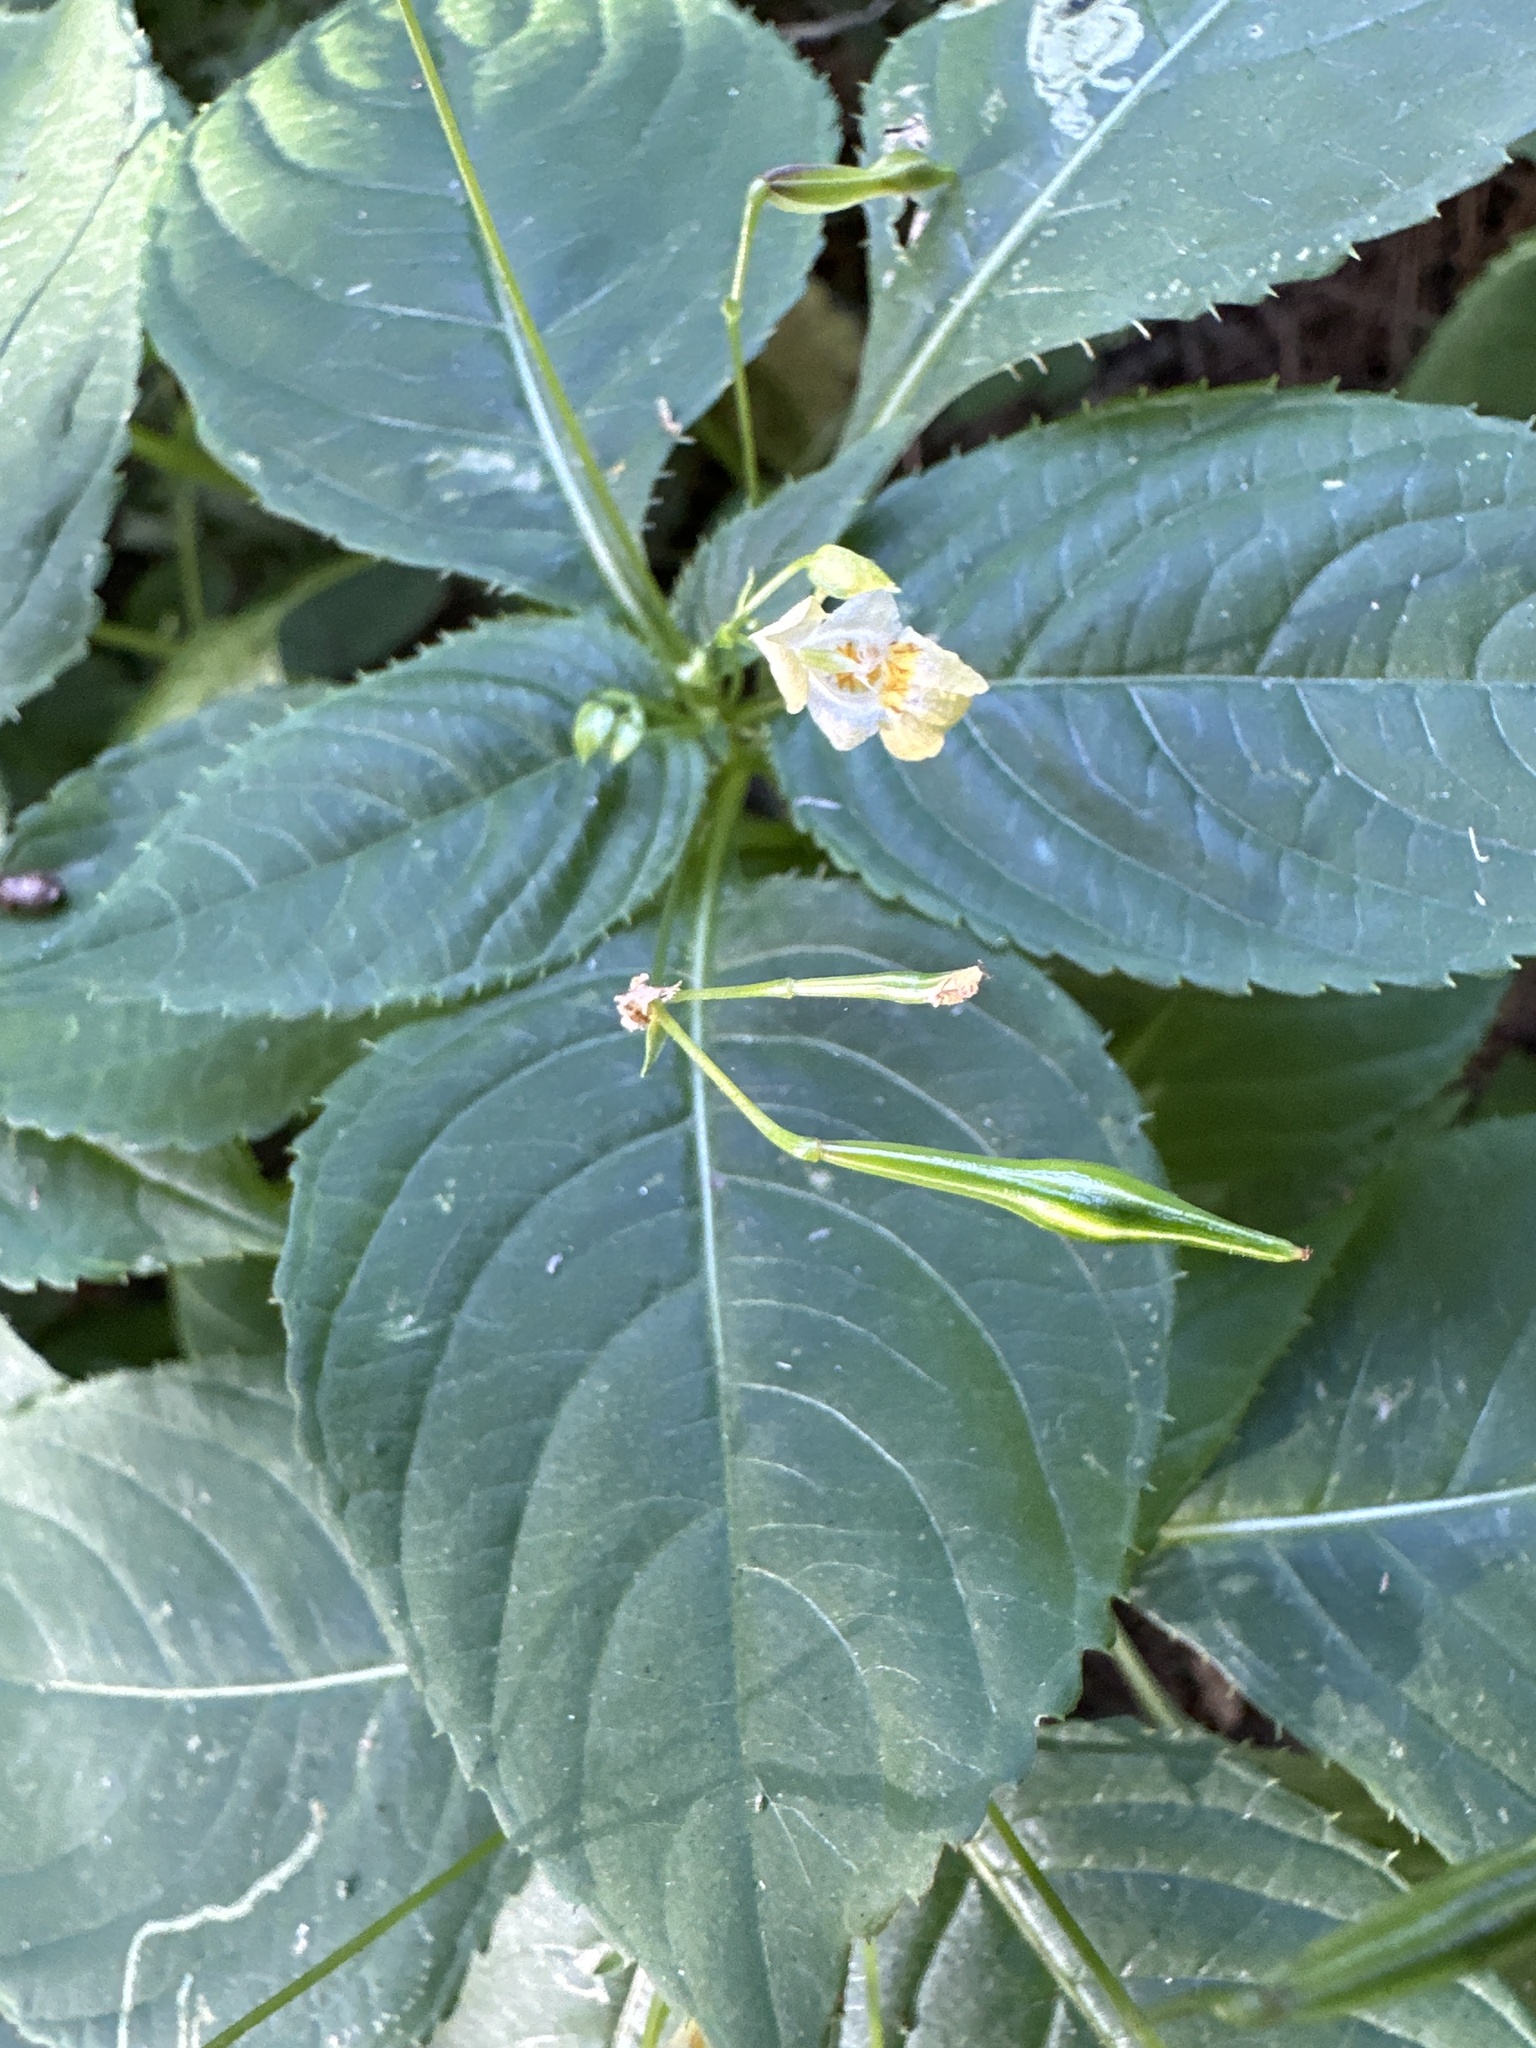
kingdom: Plantae
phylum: Tracheophyta
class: Magnoliopsida
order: Ericales
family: Balsaminaceae
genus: Impatiens
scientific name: Impatiens parviflora
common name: Small balsam
